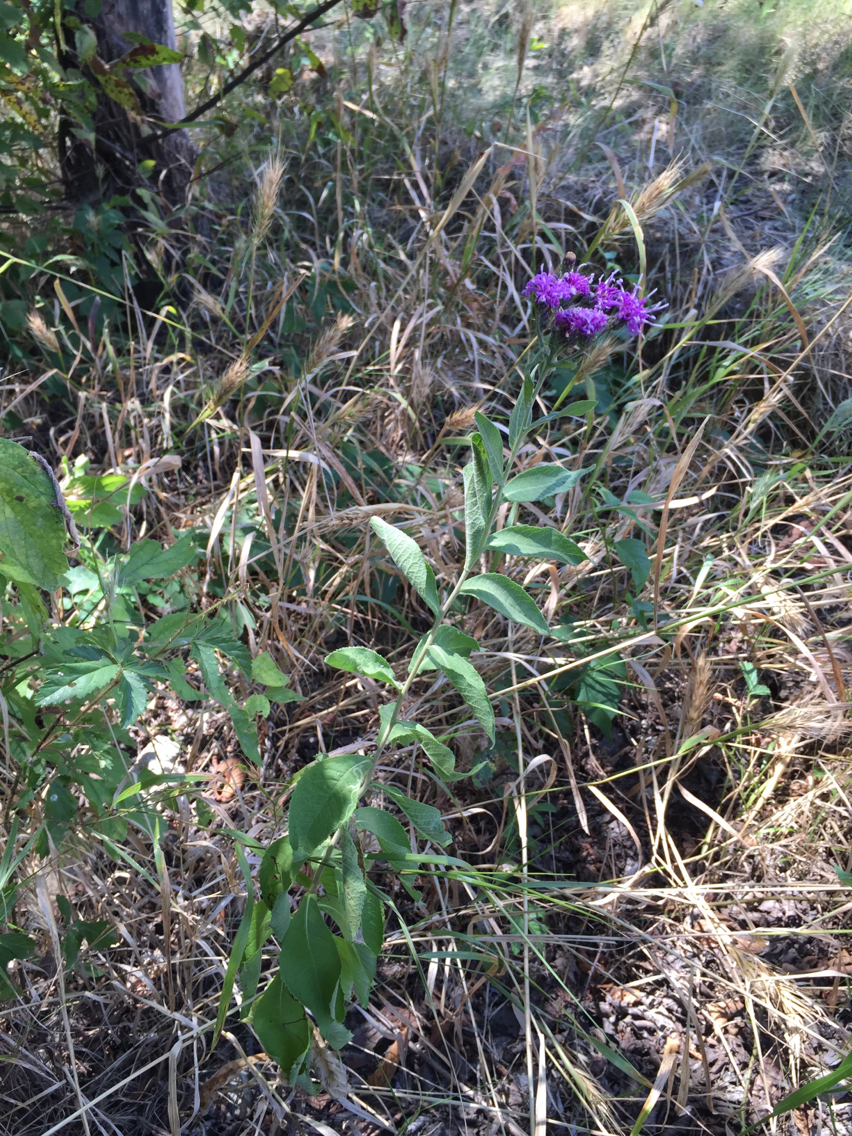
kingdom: Plantae
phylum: Tracheophyta
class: Magnoliopsida
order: Asterales
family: Asteraceae
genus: Vernonia
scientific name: Vernonia baldwinii
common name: Western ironweed
